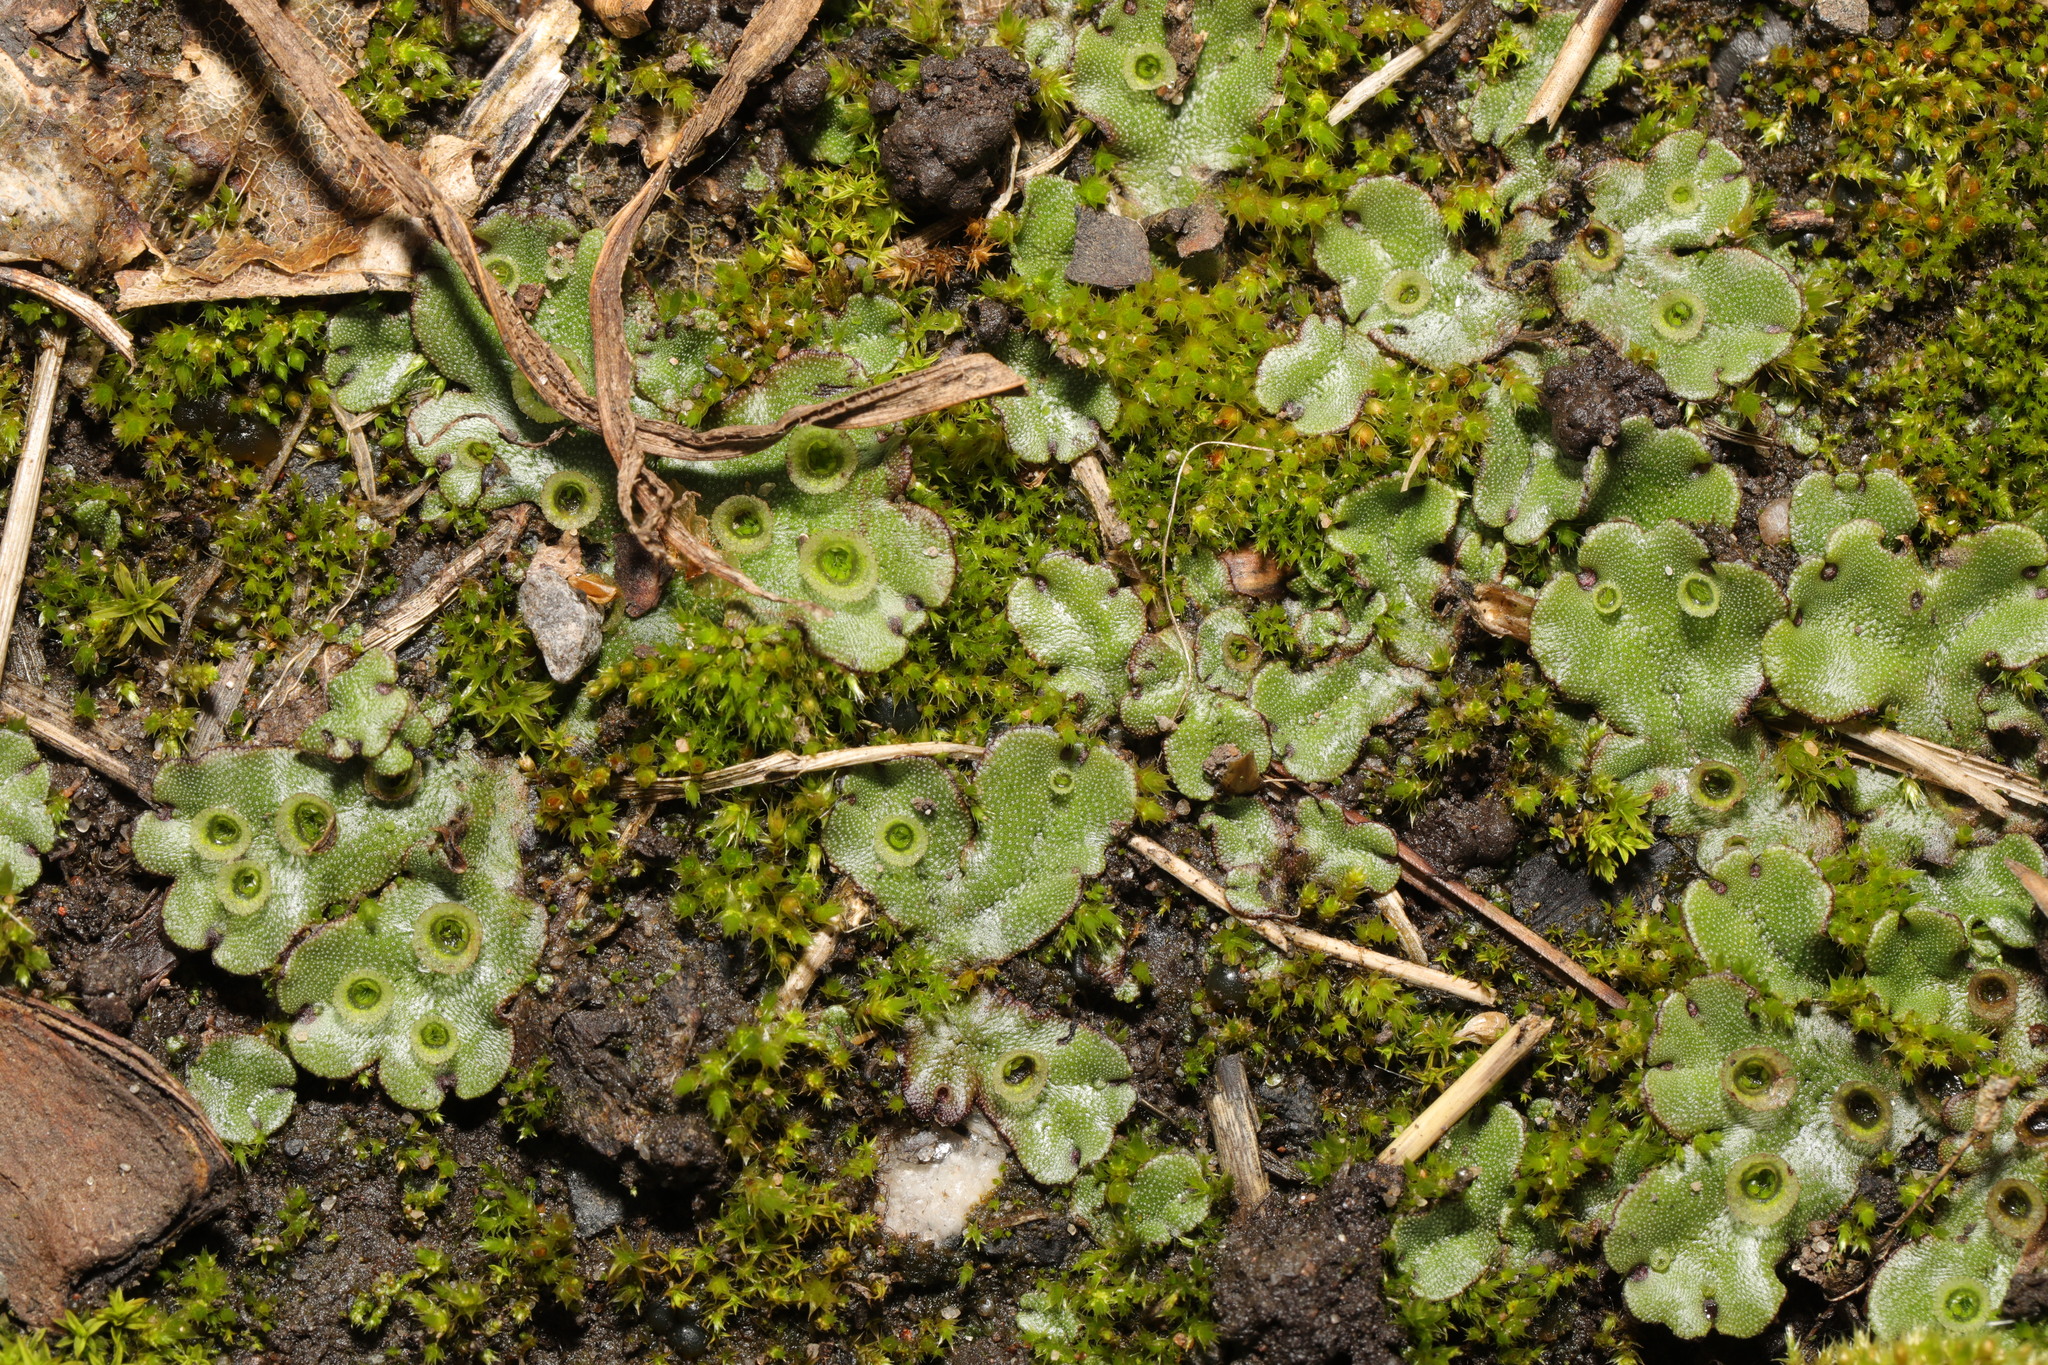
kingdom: Plantae
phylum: Marchantiophyta
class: Marchantiopsida
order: Marchantiales
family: Marchantiaceae
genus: Marchantia
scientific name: Marchantia polymorpha
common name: Common liverwort
